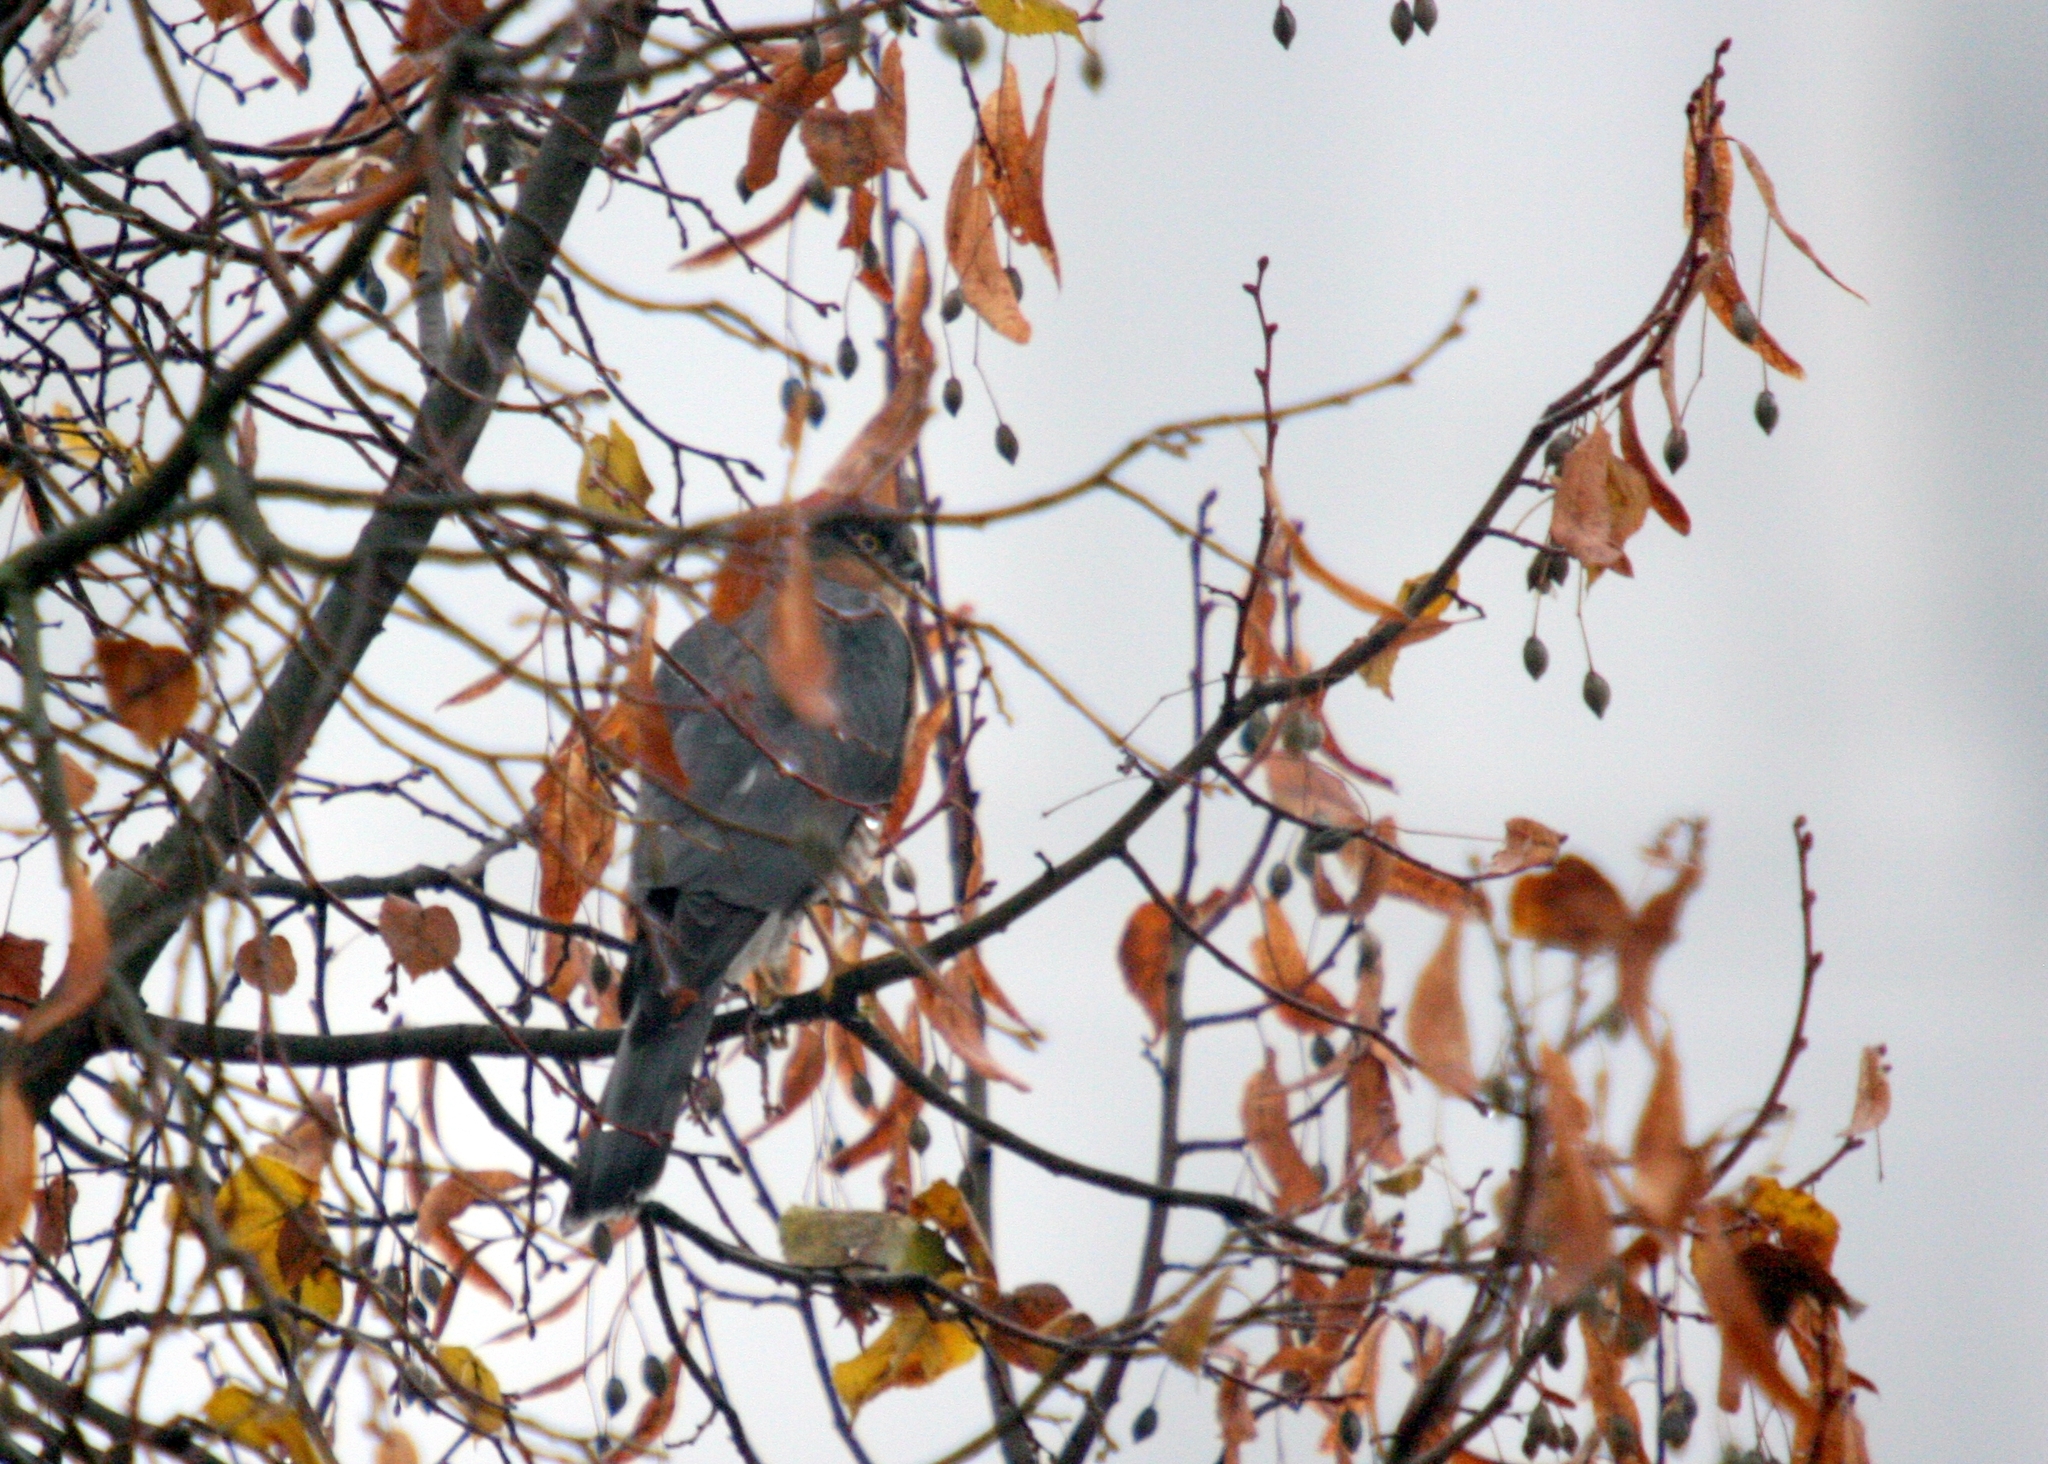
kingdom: Animalia
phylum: Chordata
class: Aves
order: Accipitriformes
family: Accipitridae
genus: Accipiter
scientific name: Accipiter nisus
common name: Eurasian sparrowhawk
